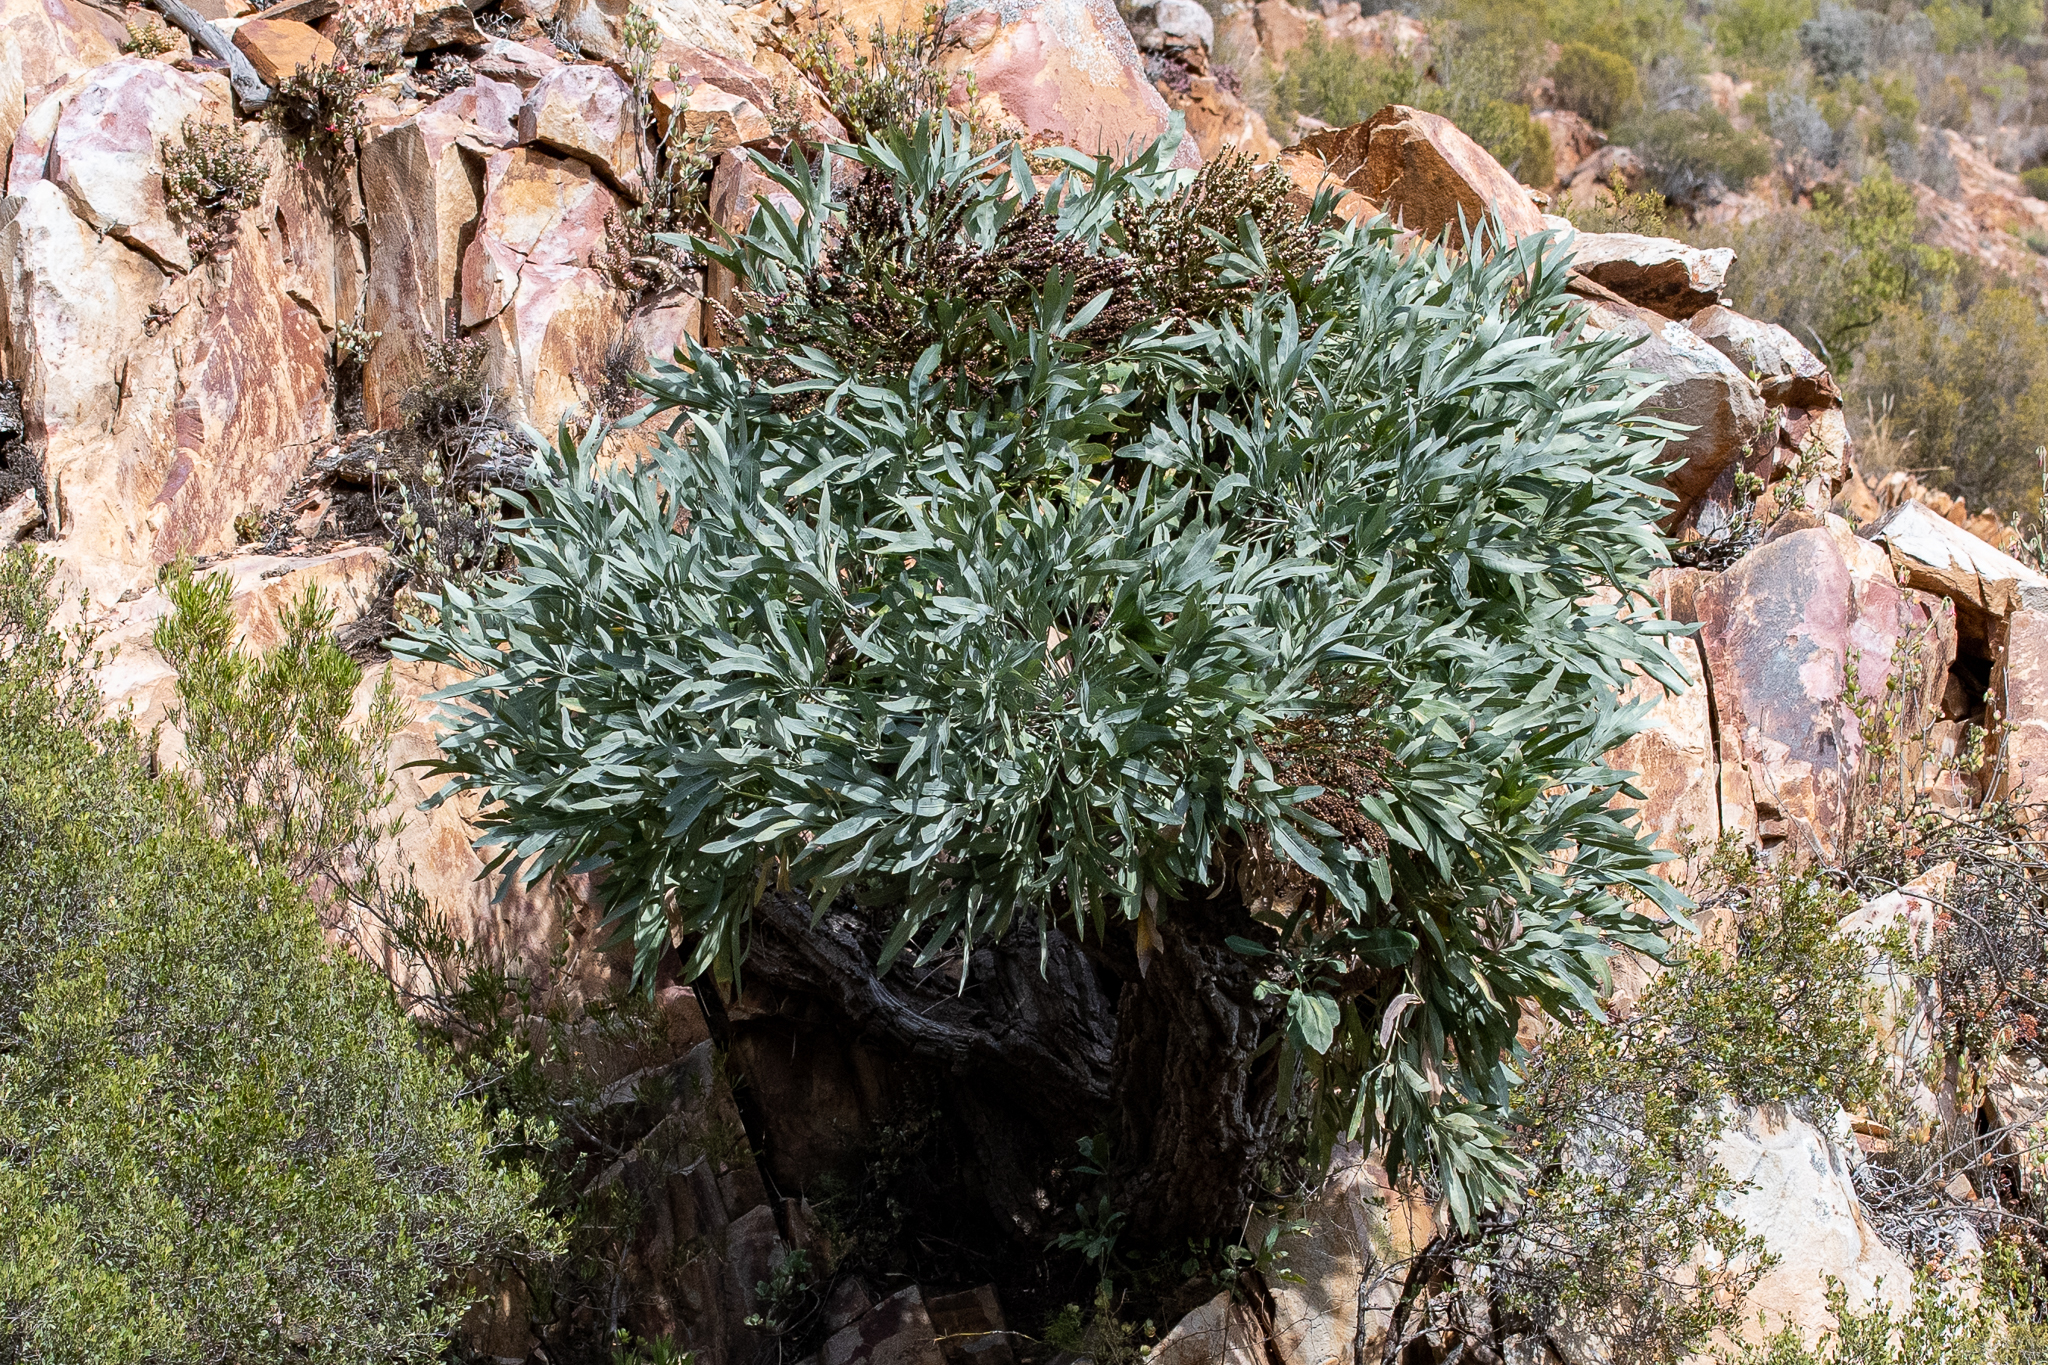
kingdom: Plantae
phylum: Tracheophyta
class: Magnoliopsida
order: Apiales
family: Araliaceae
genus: Cussonia
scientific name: Cussonia paniculata
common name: Cabbagetree
